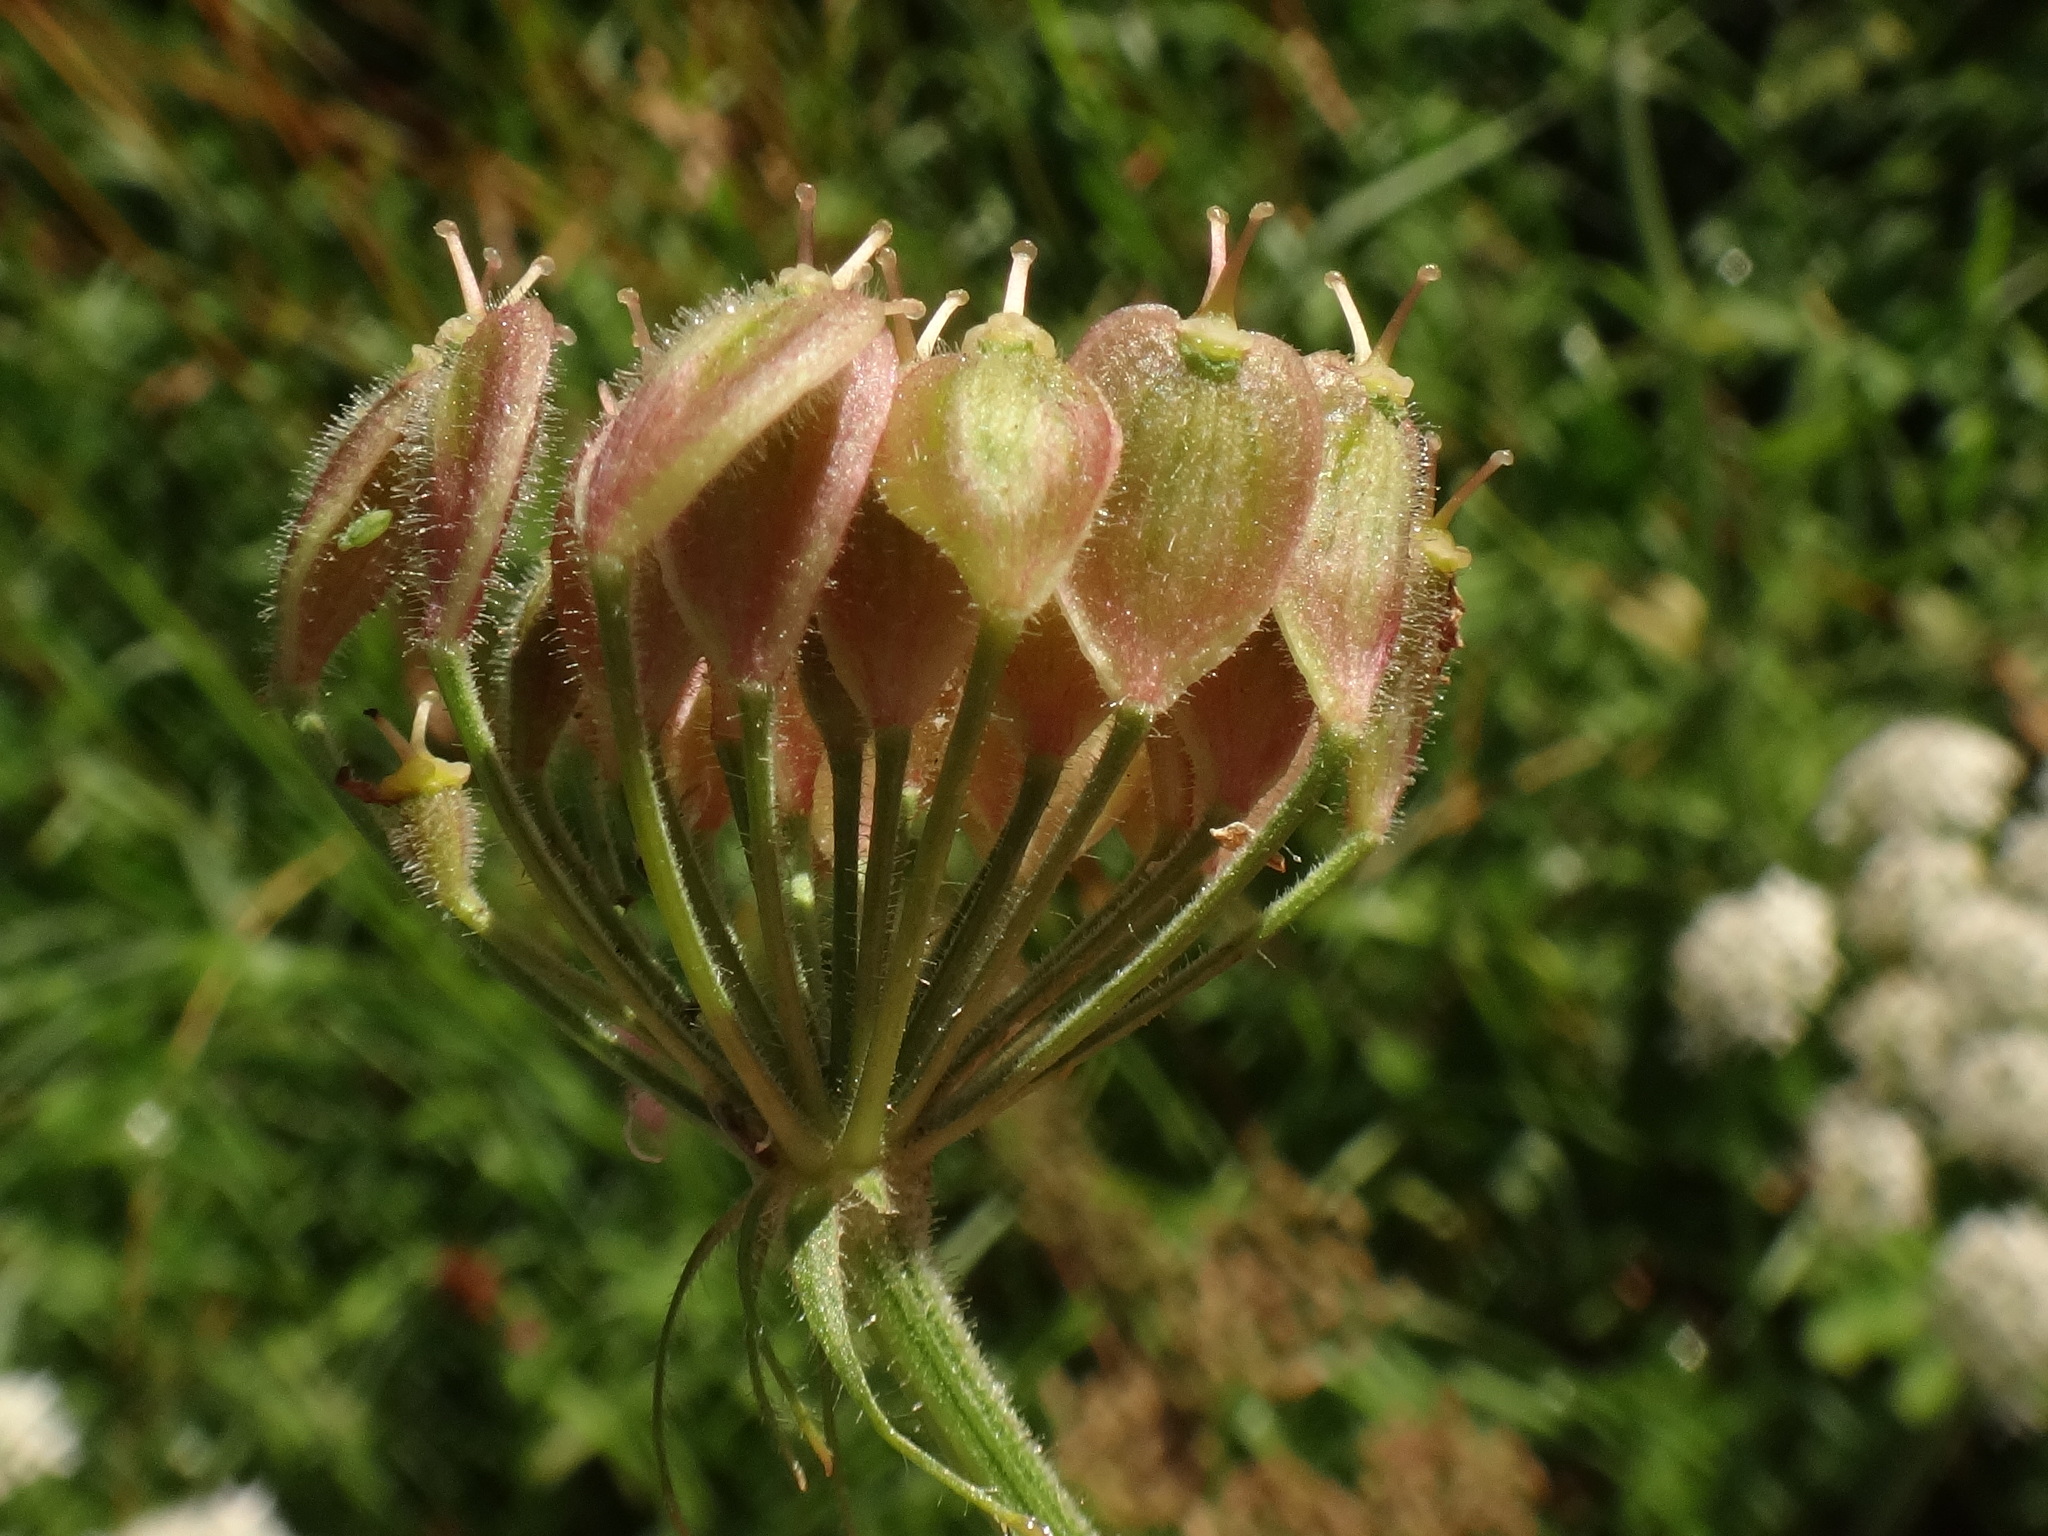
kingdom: Plantae
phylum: Tracheophyta
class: Magnoliopsida
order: Apiales
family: Apiaceae
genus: Heracleum
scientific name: Heracleum sphondylium
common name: Hogweed
